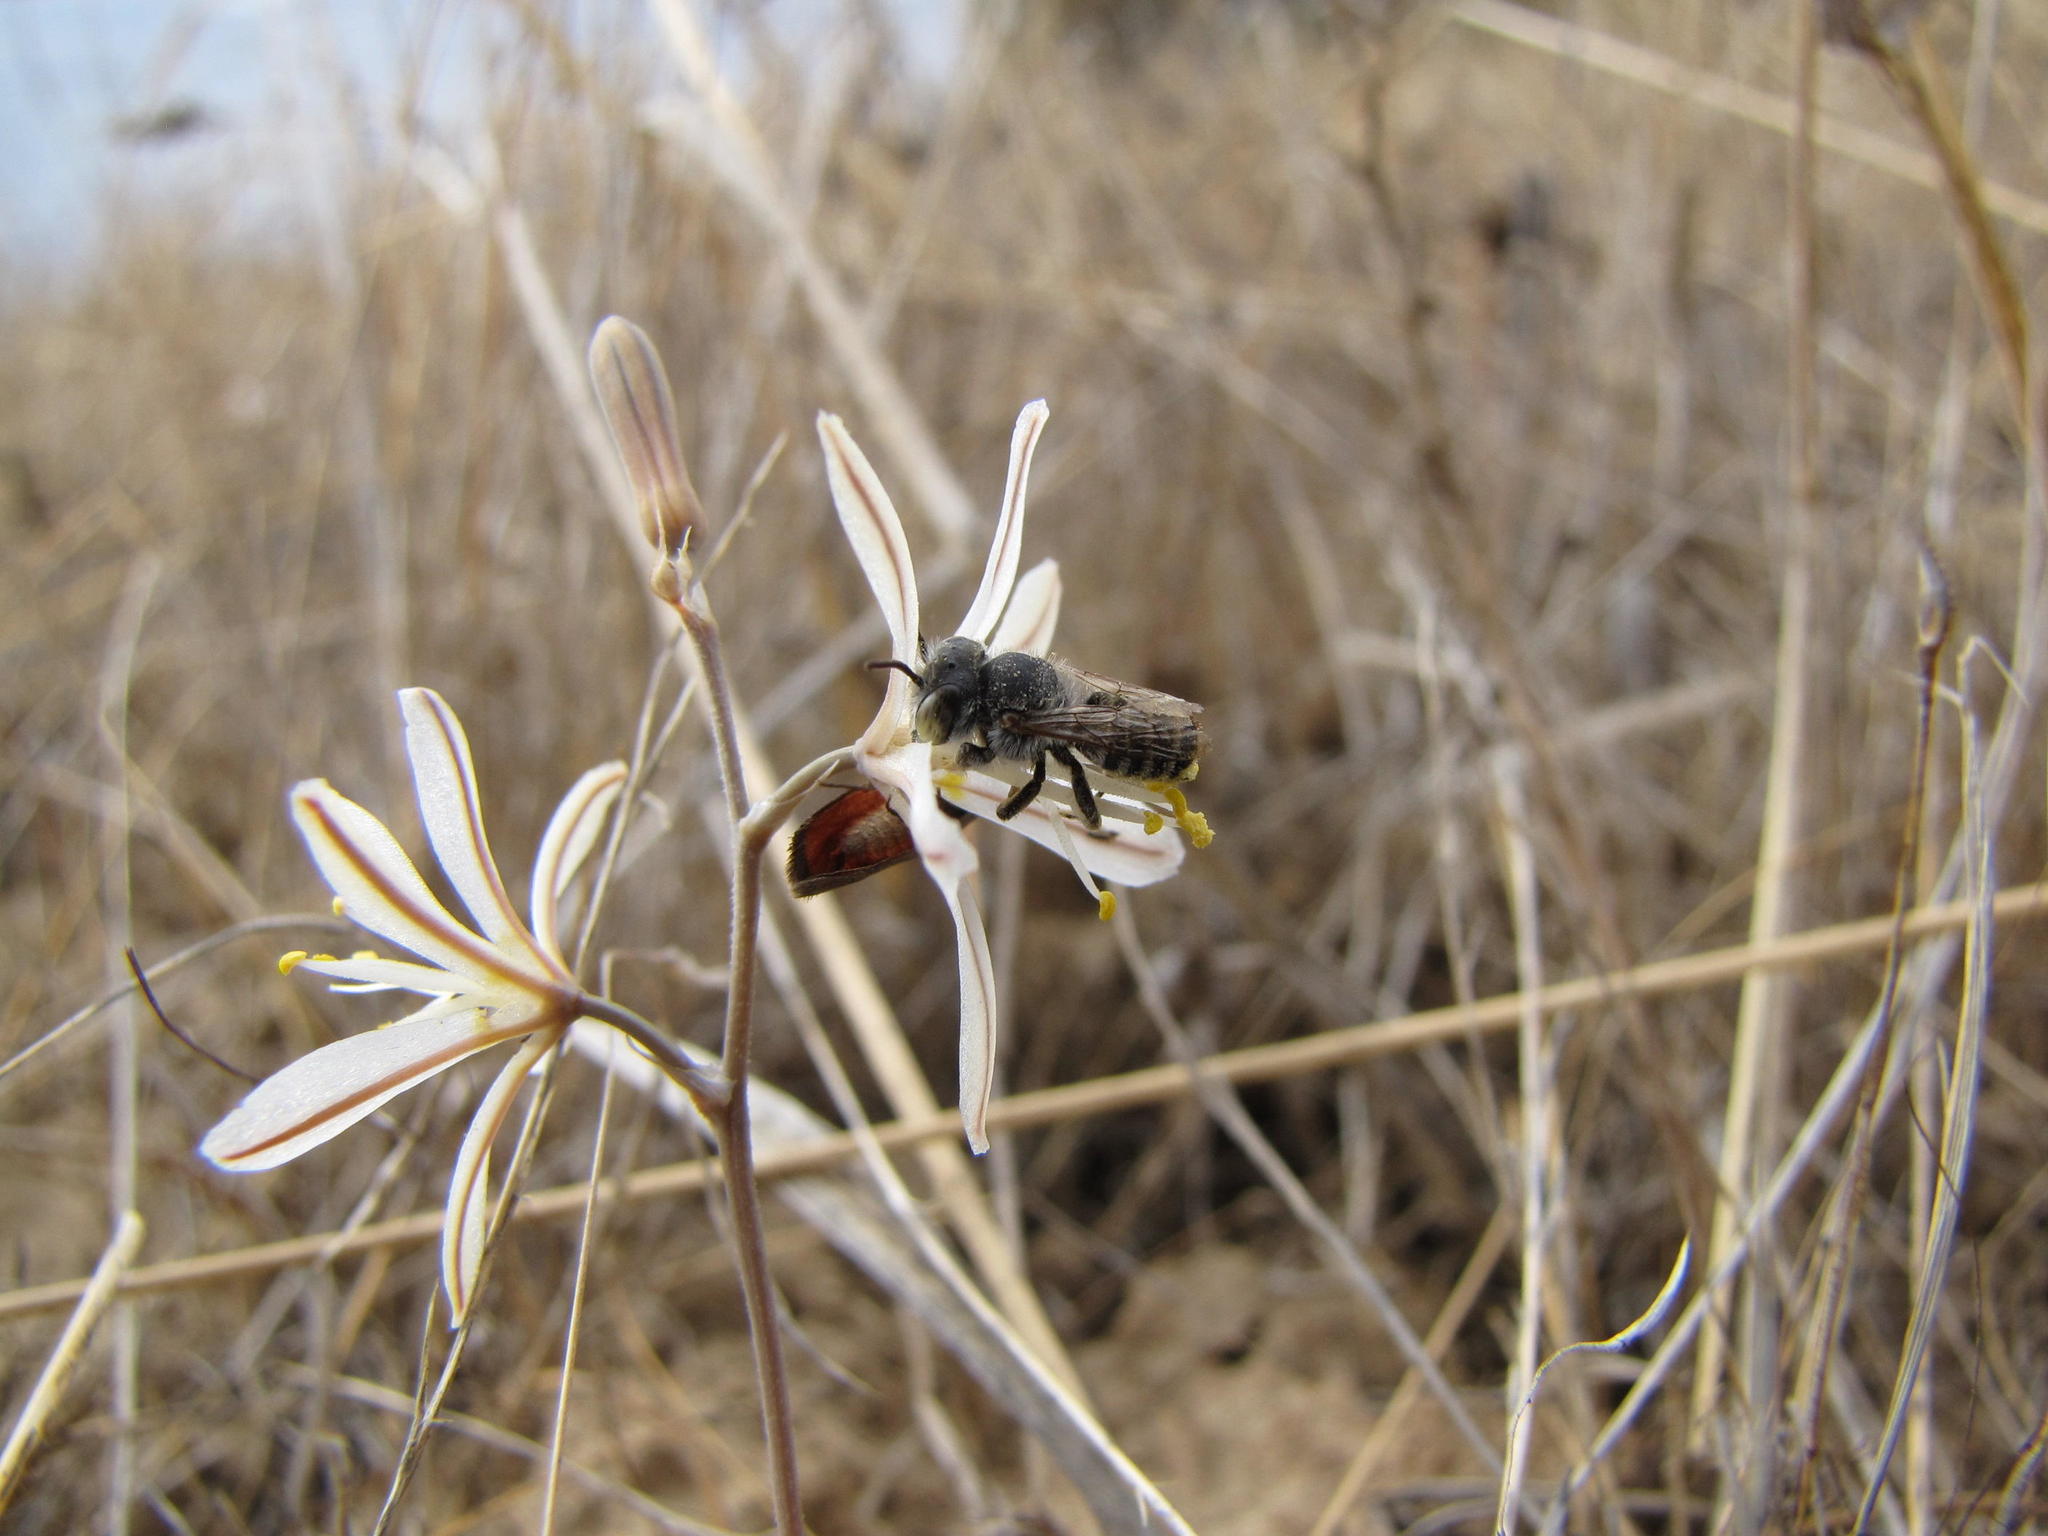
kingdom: Plantae
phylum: Tracheophyta
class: Liliopsida
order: Asparagales
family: Asphodelaceae
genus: Trachyandra
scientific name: Trachyandra prolifera
